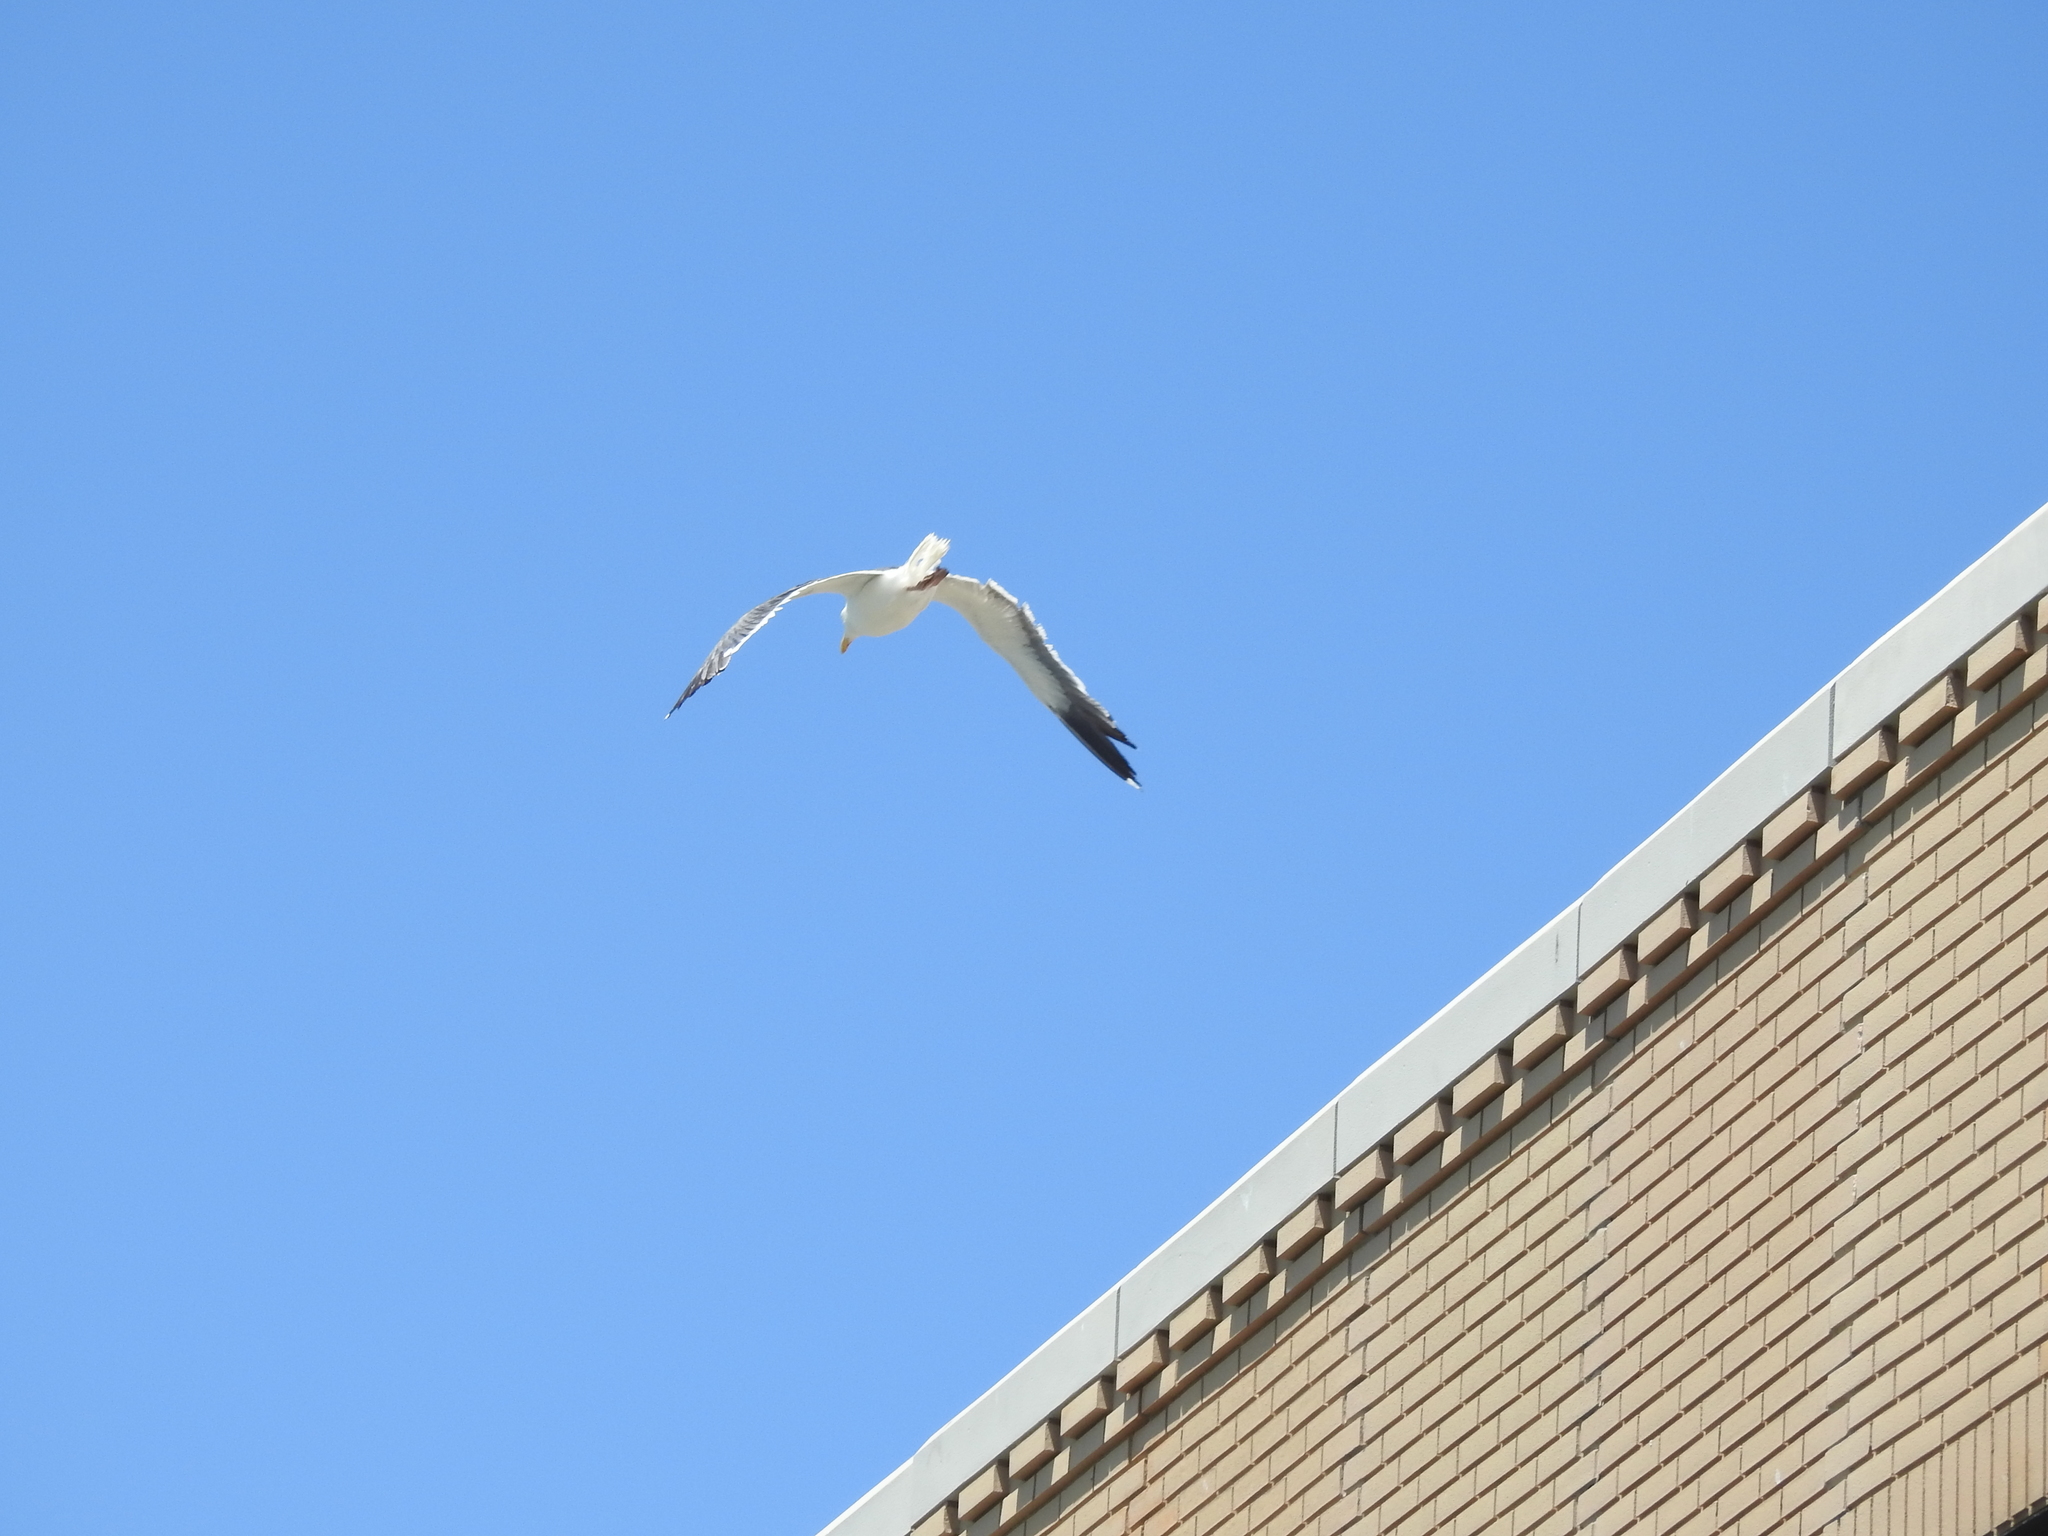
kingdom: Animalia
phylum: Chordata
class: Aves
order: Charadriiformes
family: Laridae
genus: Larus
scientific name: Larus occidentalis
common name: Western gull
